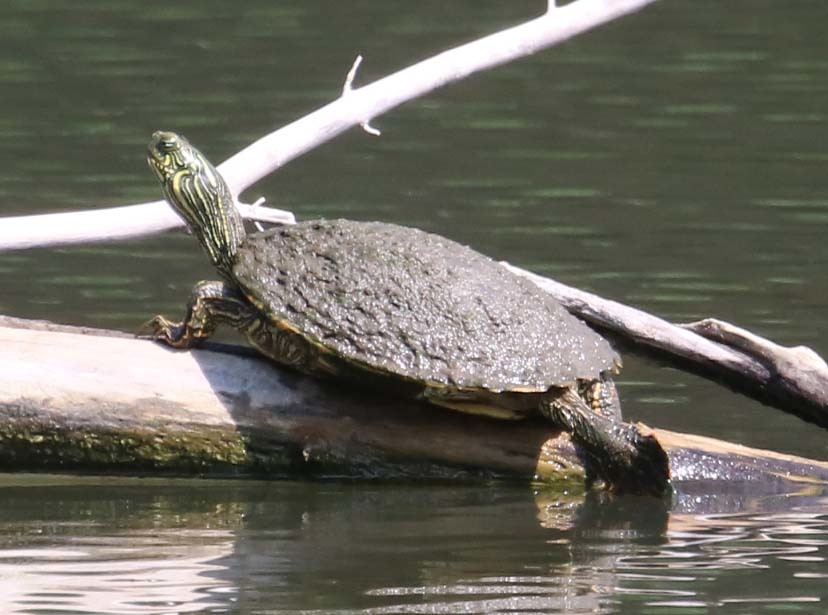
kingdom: Animalia
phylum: Chordata
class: Testudines
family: Emydidae
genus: Pseudemys
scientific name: Pseudemys texana
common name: Texas river cooter
